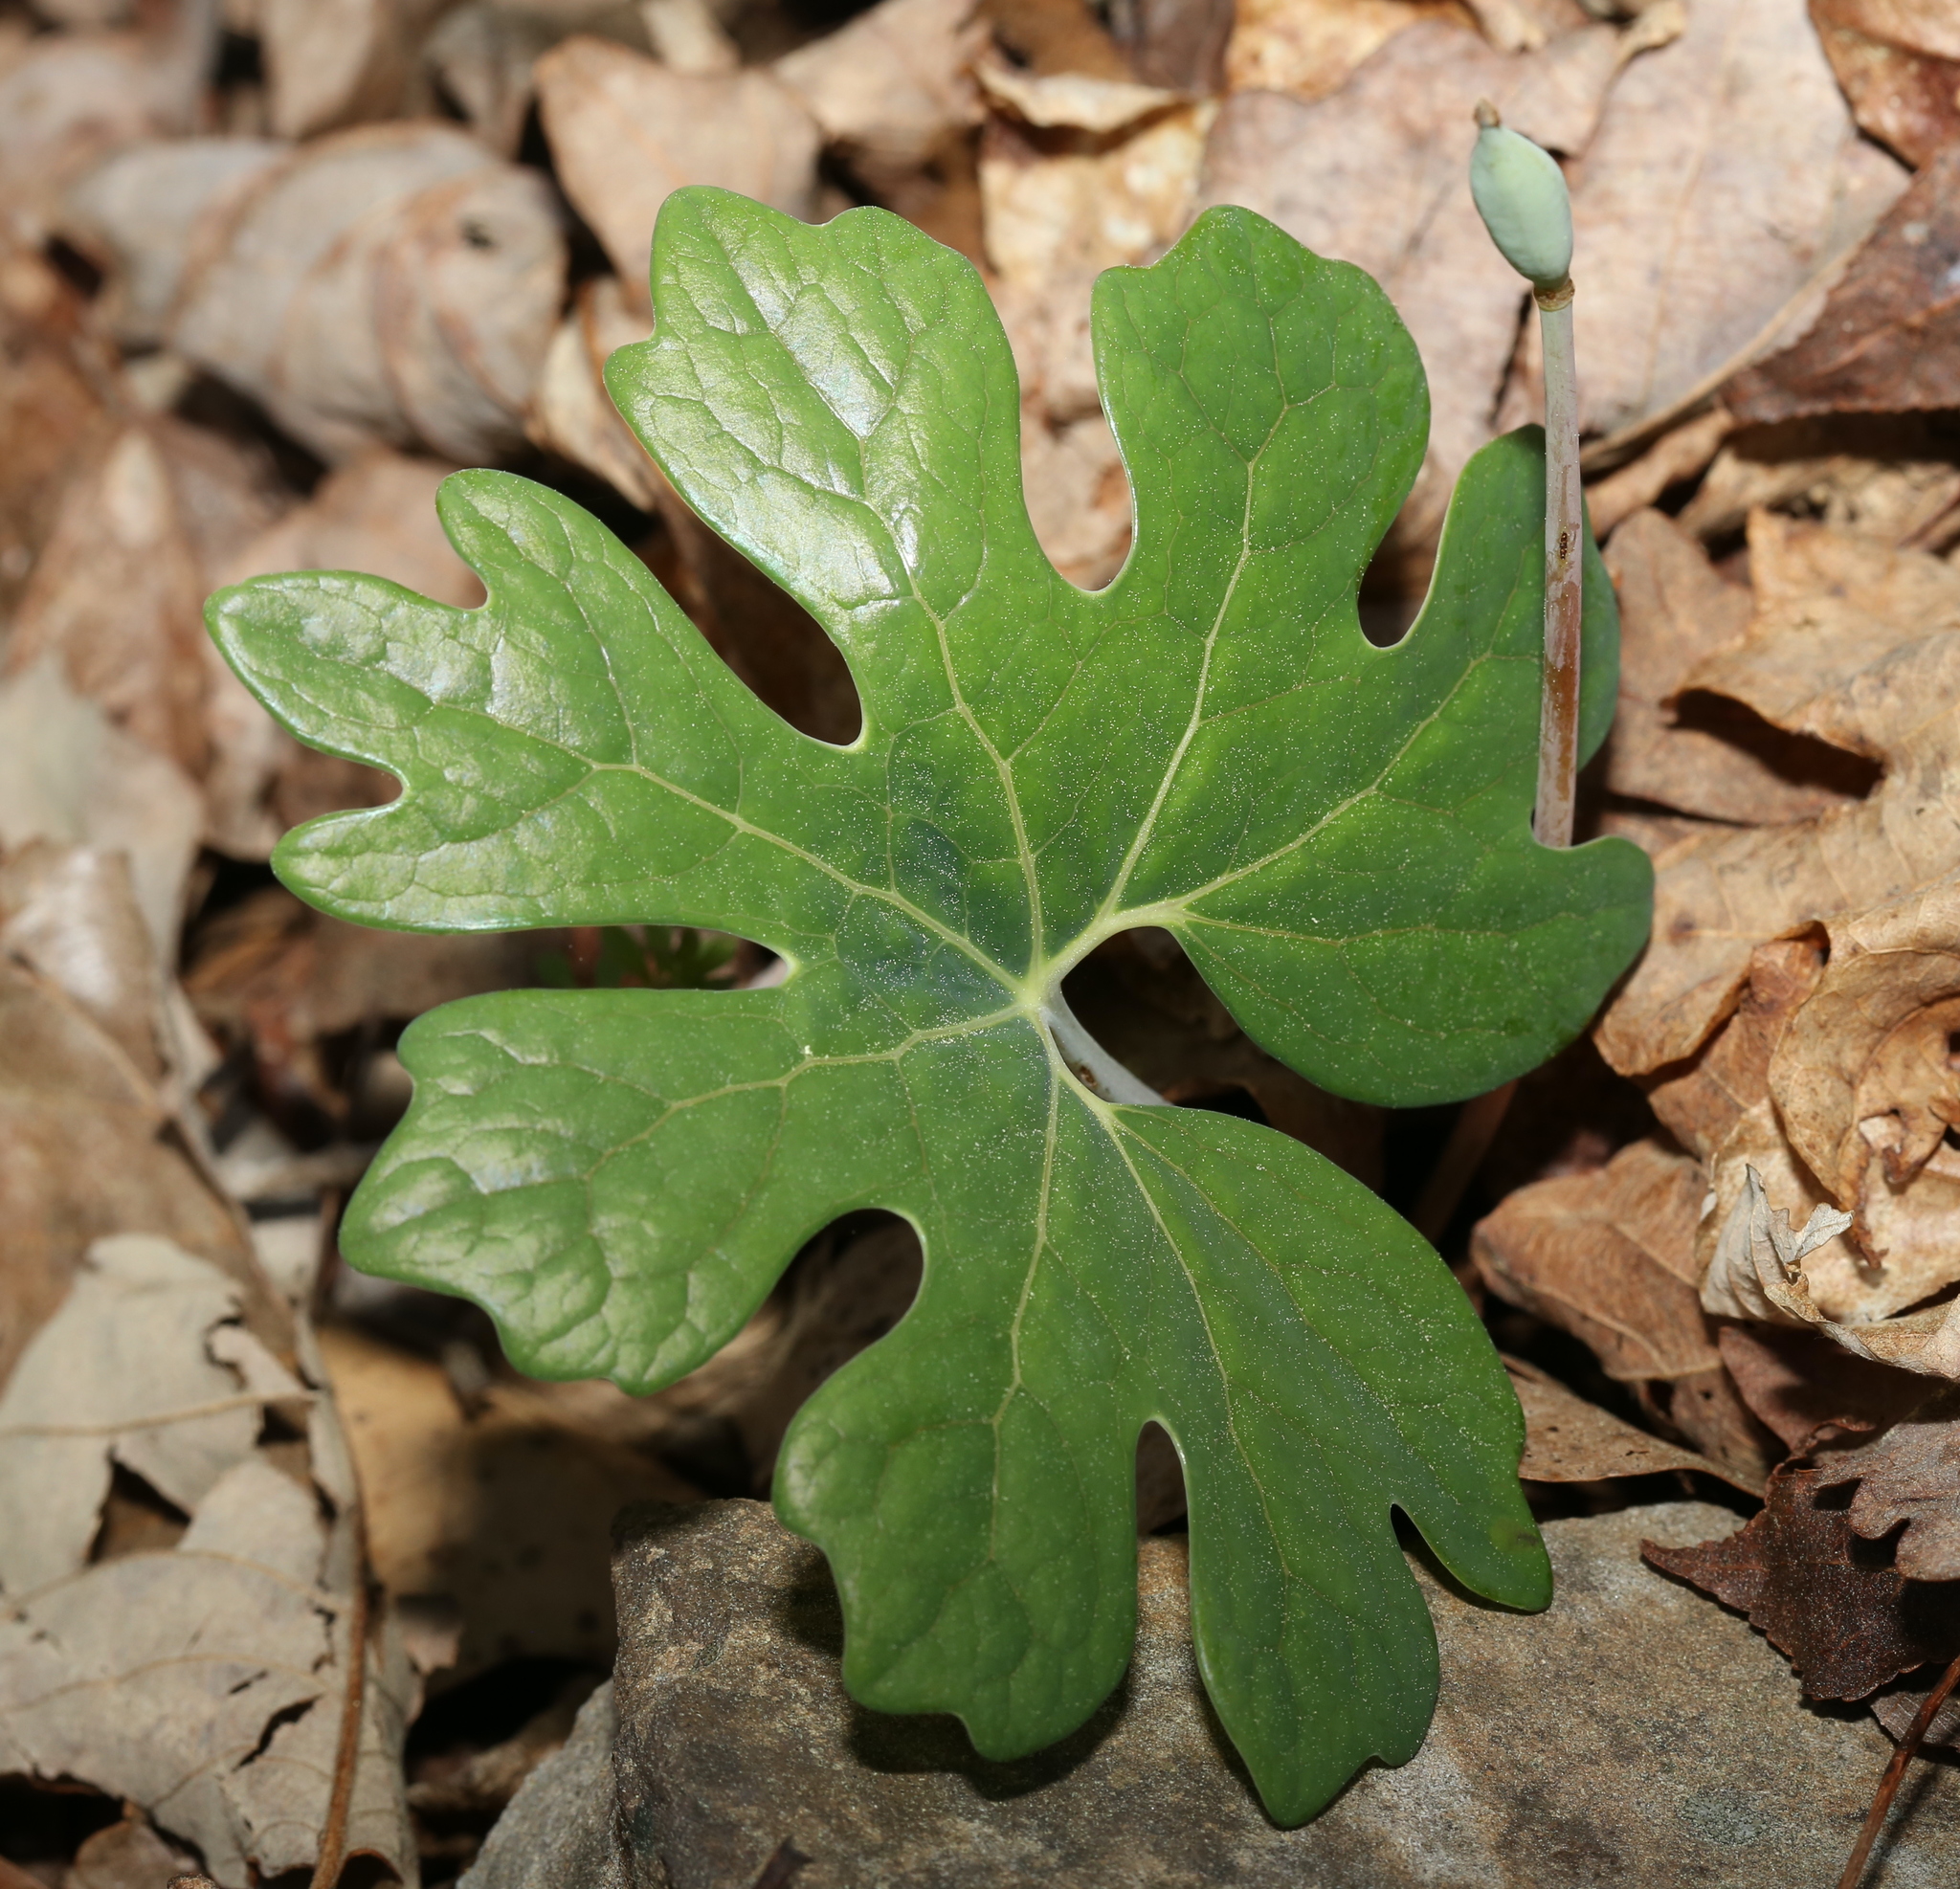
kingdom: Plantae
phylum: Tracheophyta
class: Magnoliopsida
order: Ranunculales
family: Papaveraceae
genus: Sanguinaria
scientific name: Sanguinaria canadensis
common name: Bloodroot
